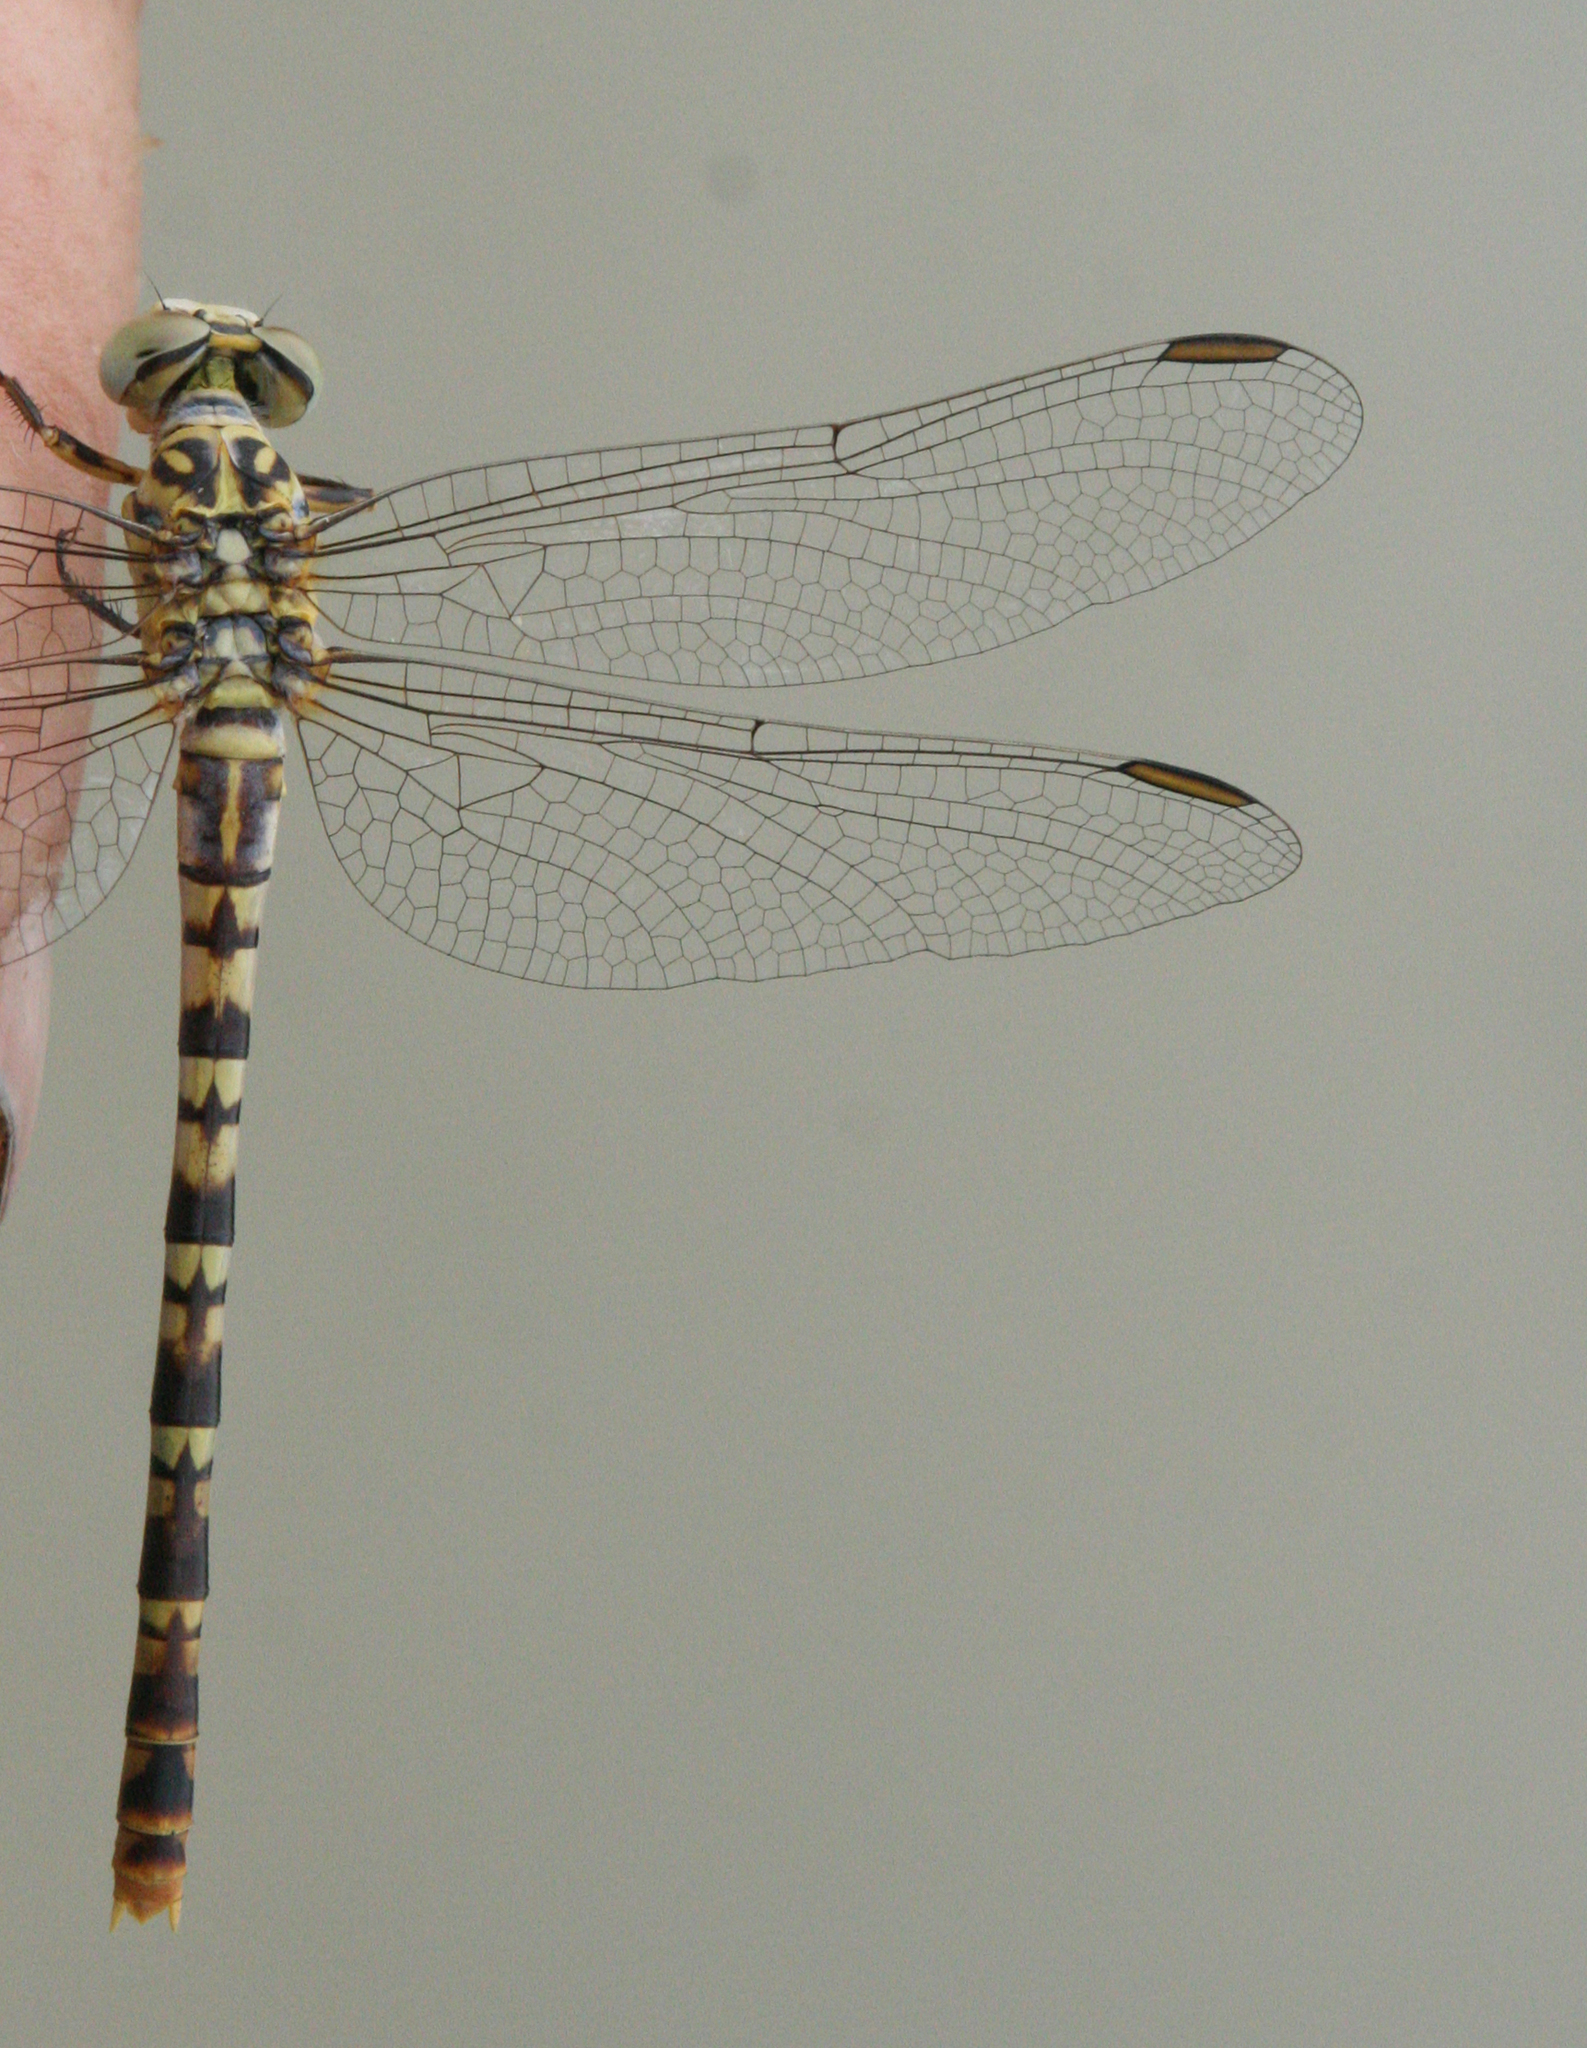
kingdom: Animalia
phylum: Arthropoda
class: Insecta
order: Odonata
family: Gomphidae
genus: Onychogomphus
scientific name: Onychogomphus flexuosus
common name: Waved pincertail
